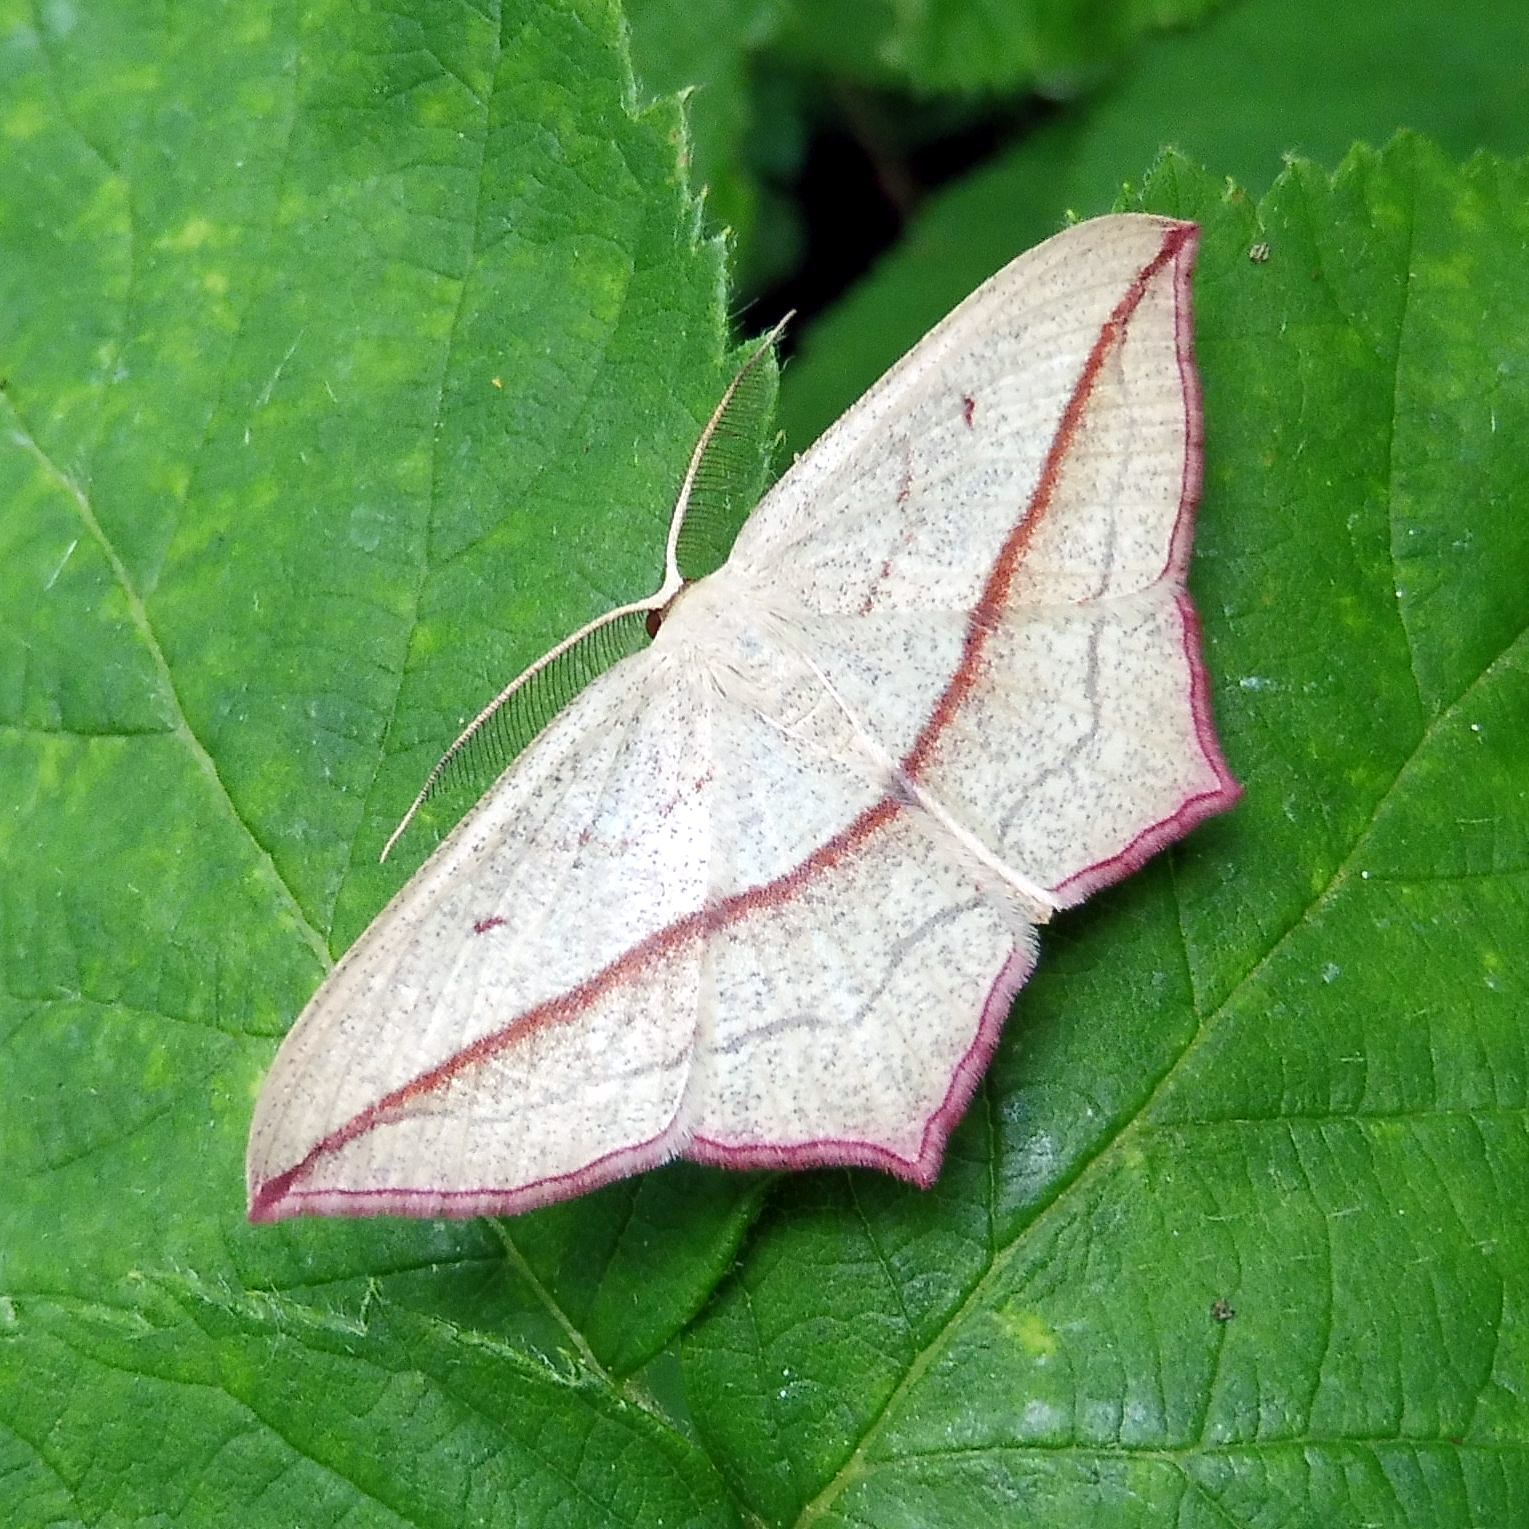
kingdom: Animalia
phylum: Arthropoda
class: Insecta
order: Lepidoptera
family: Geometridae
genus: Timandra
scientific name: Timandra comae
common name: Blood-vein
